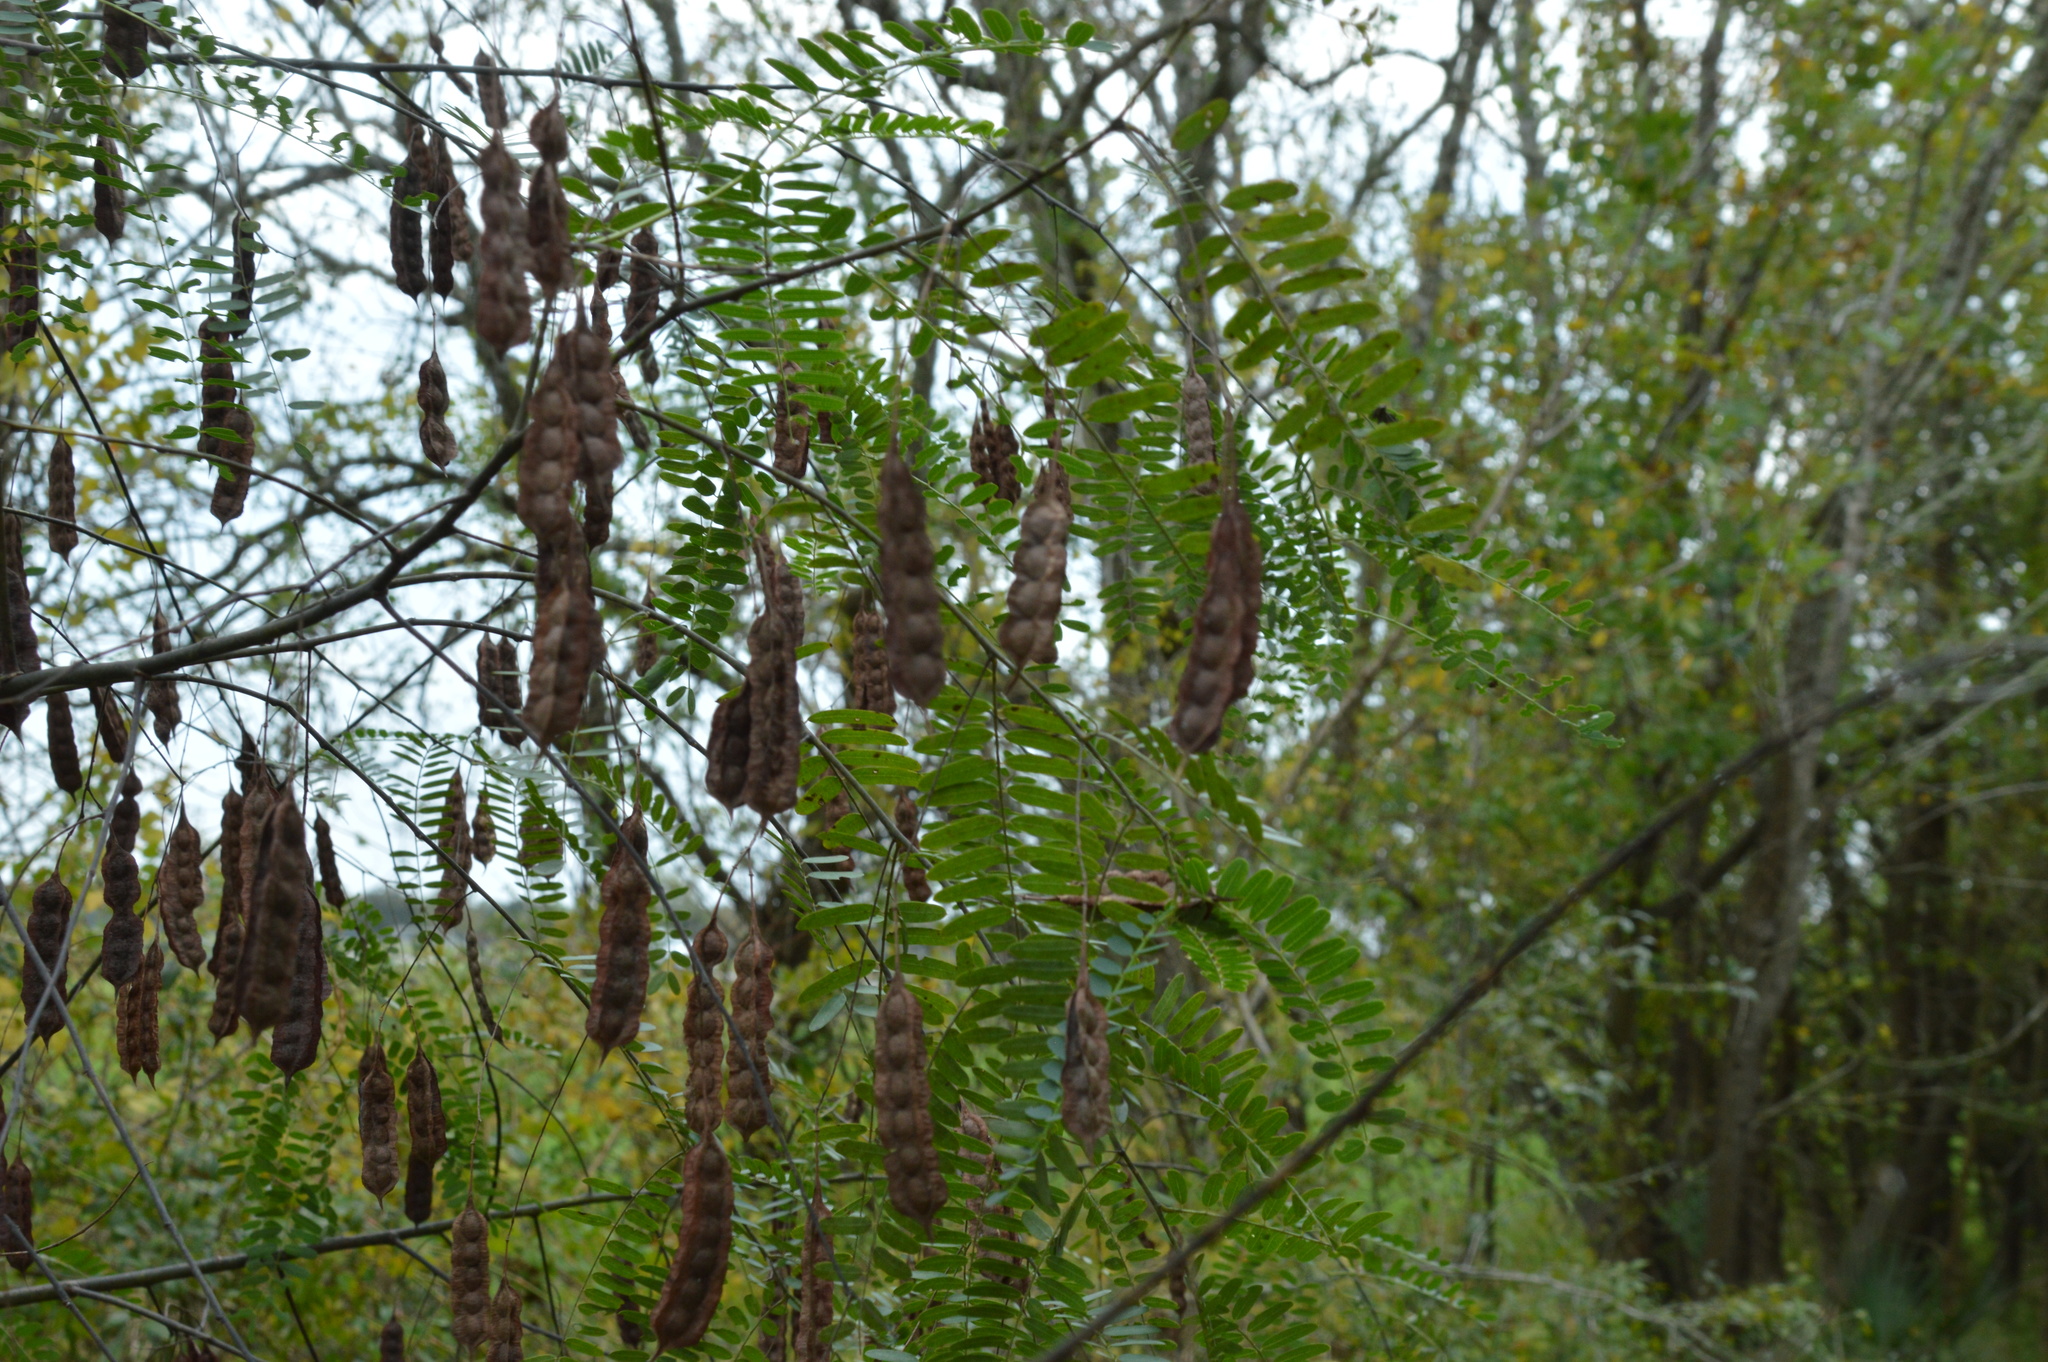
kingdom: Plantae
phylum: Tracheophyta
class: Magnoliopsida
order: Fabales
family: Fabaceae
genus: Sesbania
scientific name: Sesbania drummondii
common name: Poison-bean
